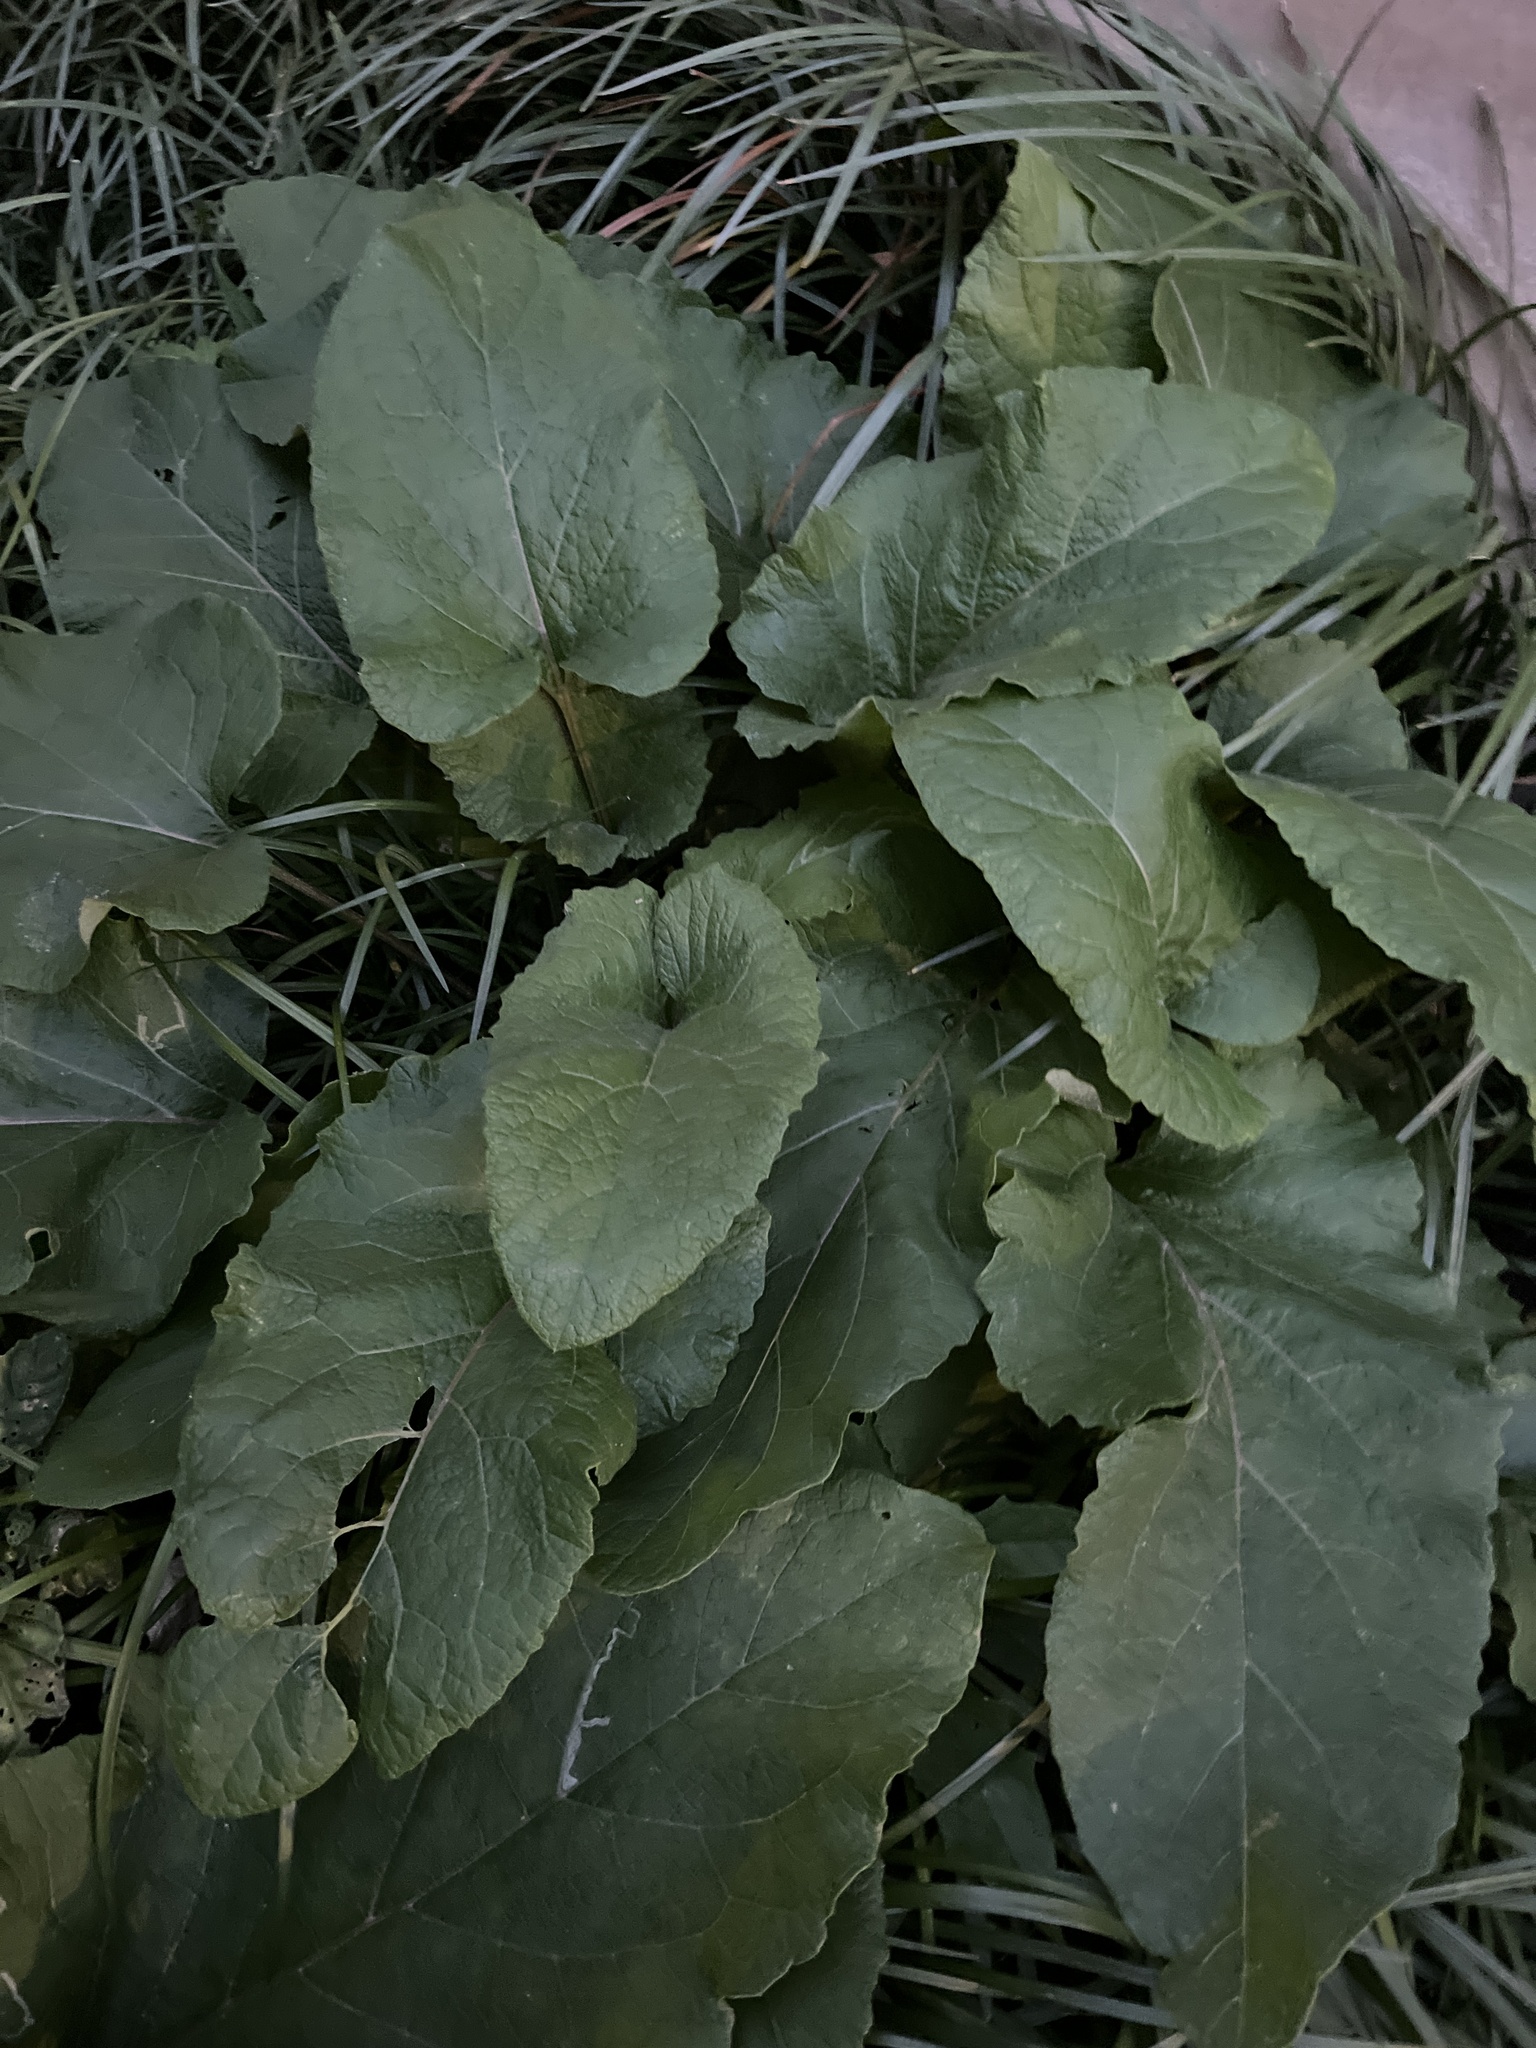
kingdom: Plantae
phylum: Tracheophyta
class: Magnoliopsida
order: Asterales
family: Asteraceae
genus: Arctium
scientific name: Arctium
